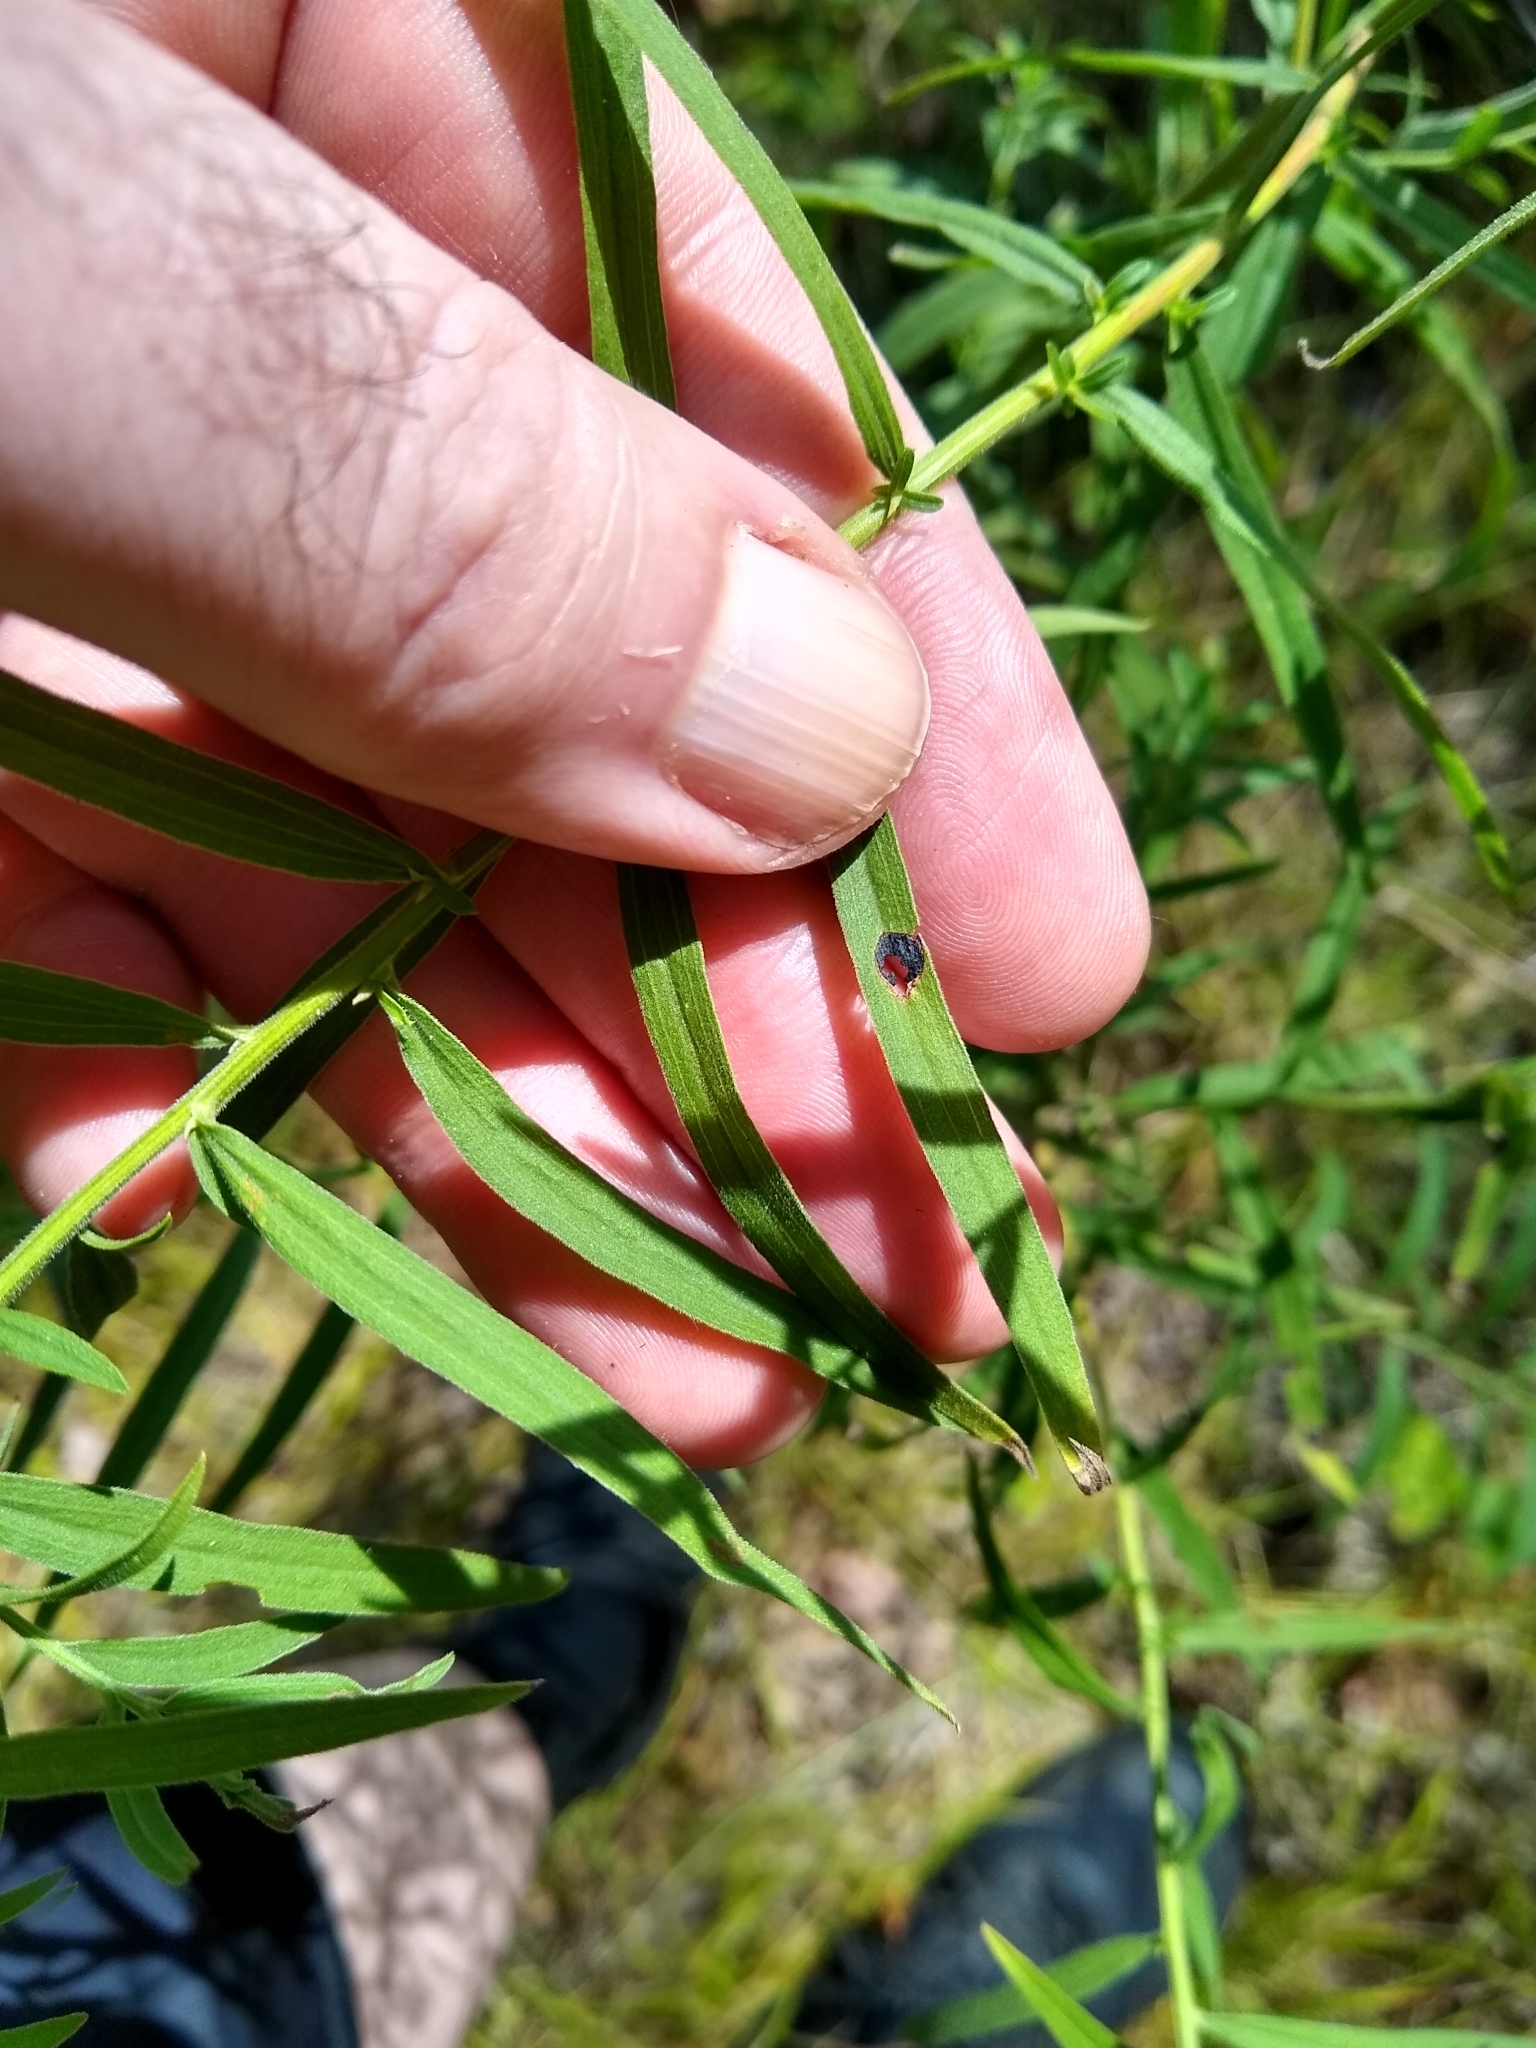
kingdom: Animalia
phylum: Arthropoda
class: Insecta
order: Diptera
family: Cecidomyiidae
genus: Asteromyia
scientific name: Asteromyia euthamiae
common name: Euthamia leaf gall midge
